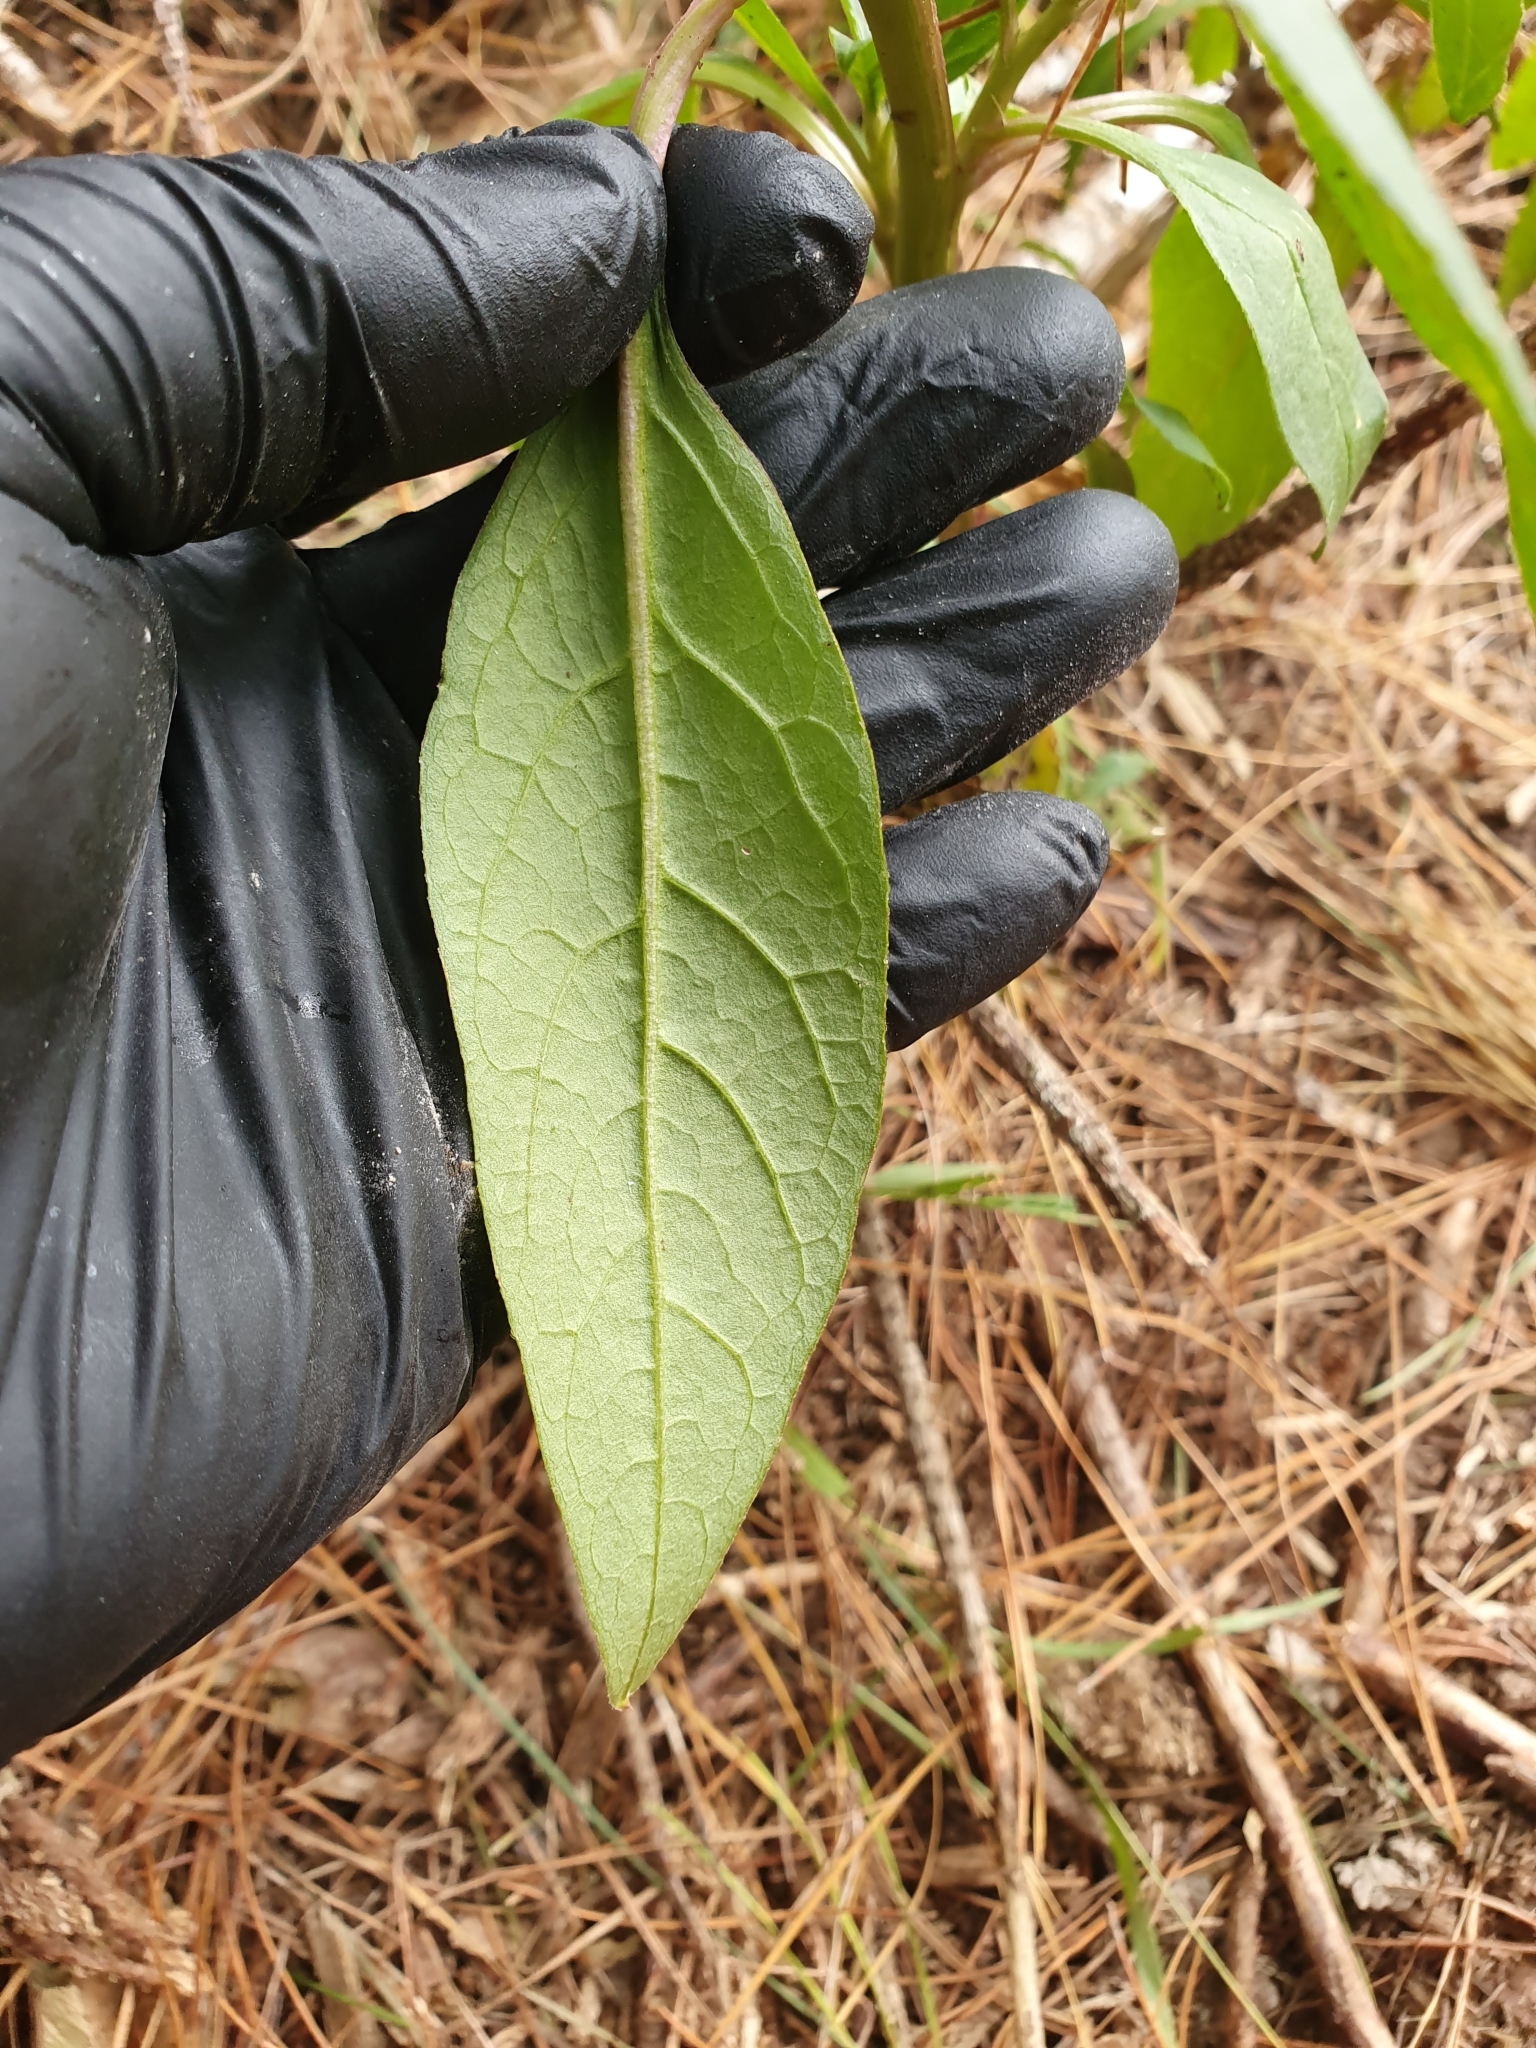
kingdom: Plantae
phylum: Tracheophyta
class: Magnoliopsida
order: Caryophyllales
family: Phytolaccaceae
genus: Phytolacca
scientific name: Phytolacca icosandra
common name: Button pokeweed
